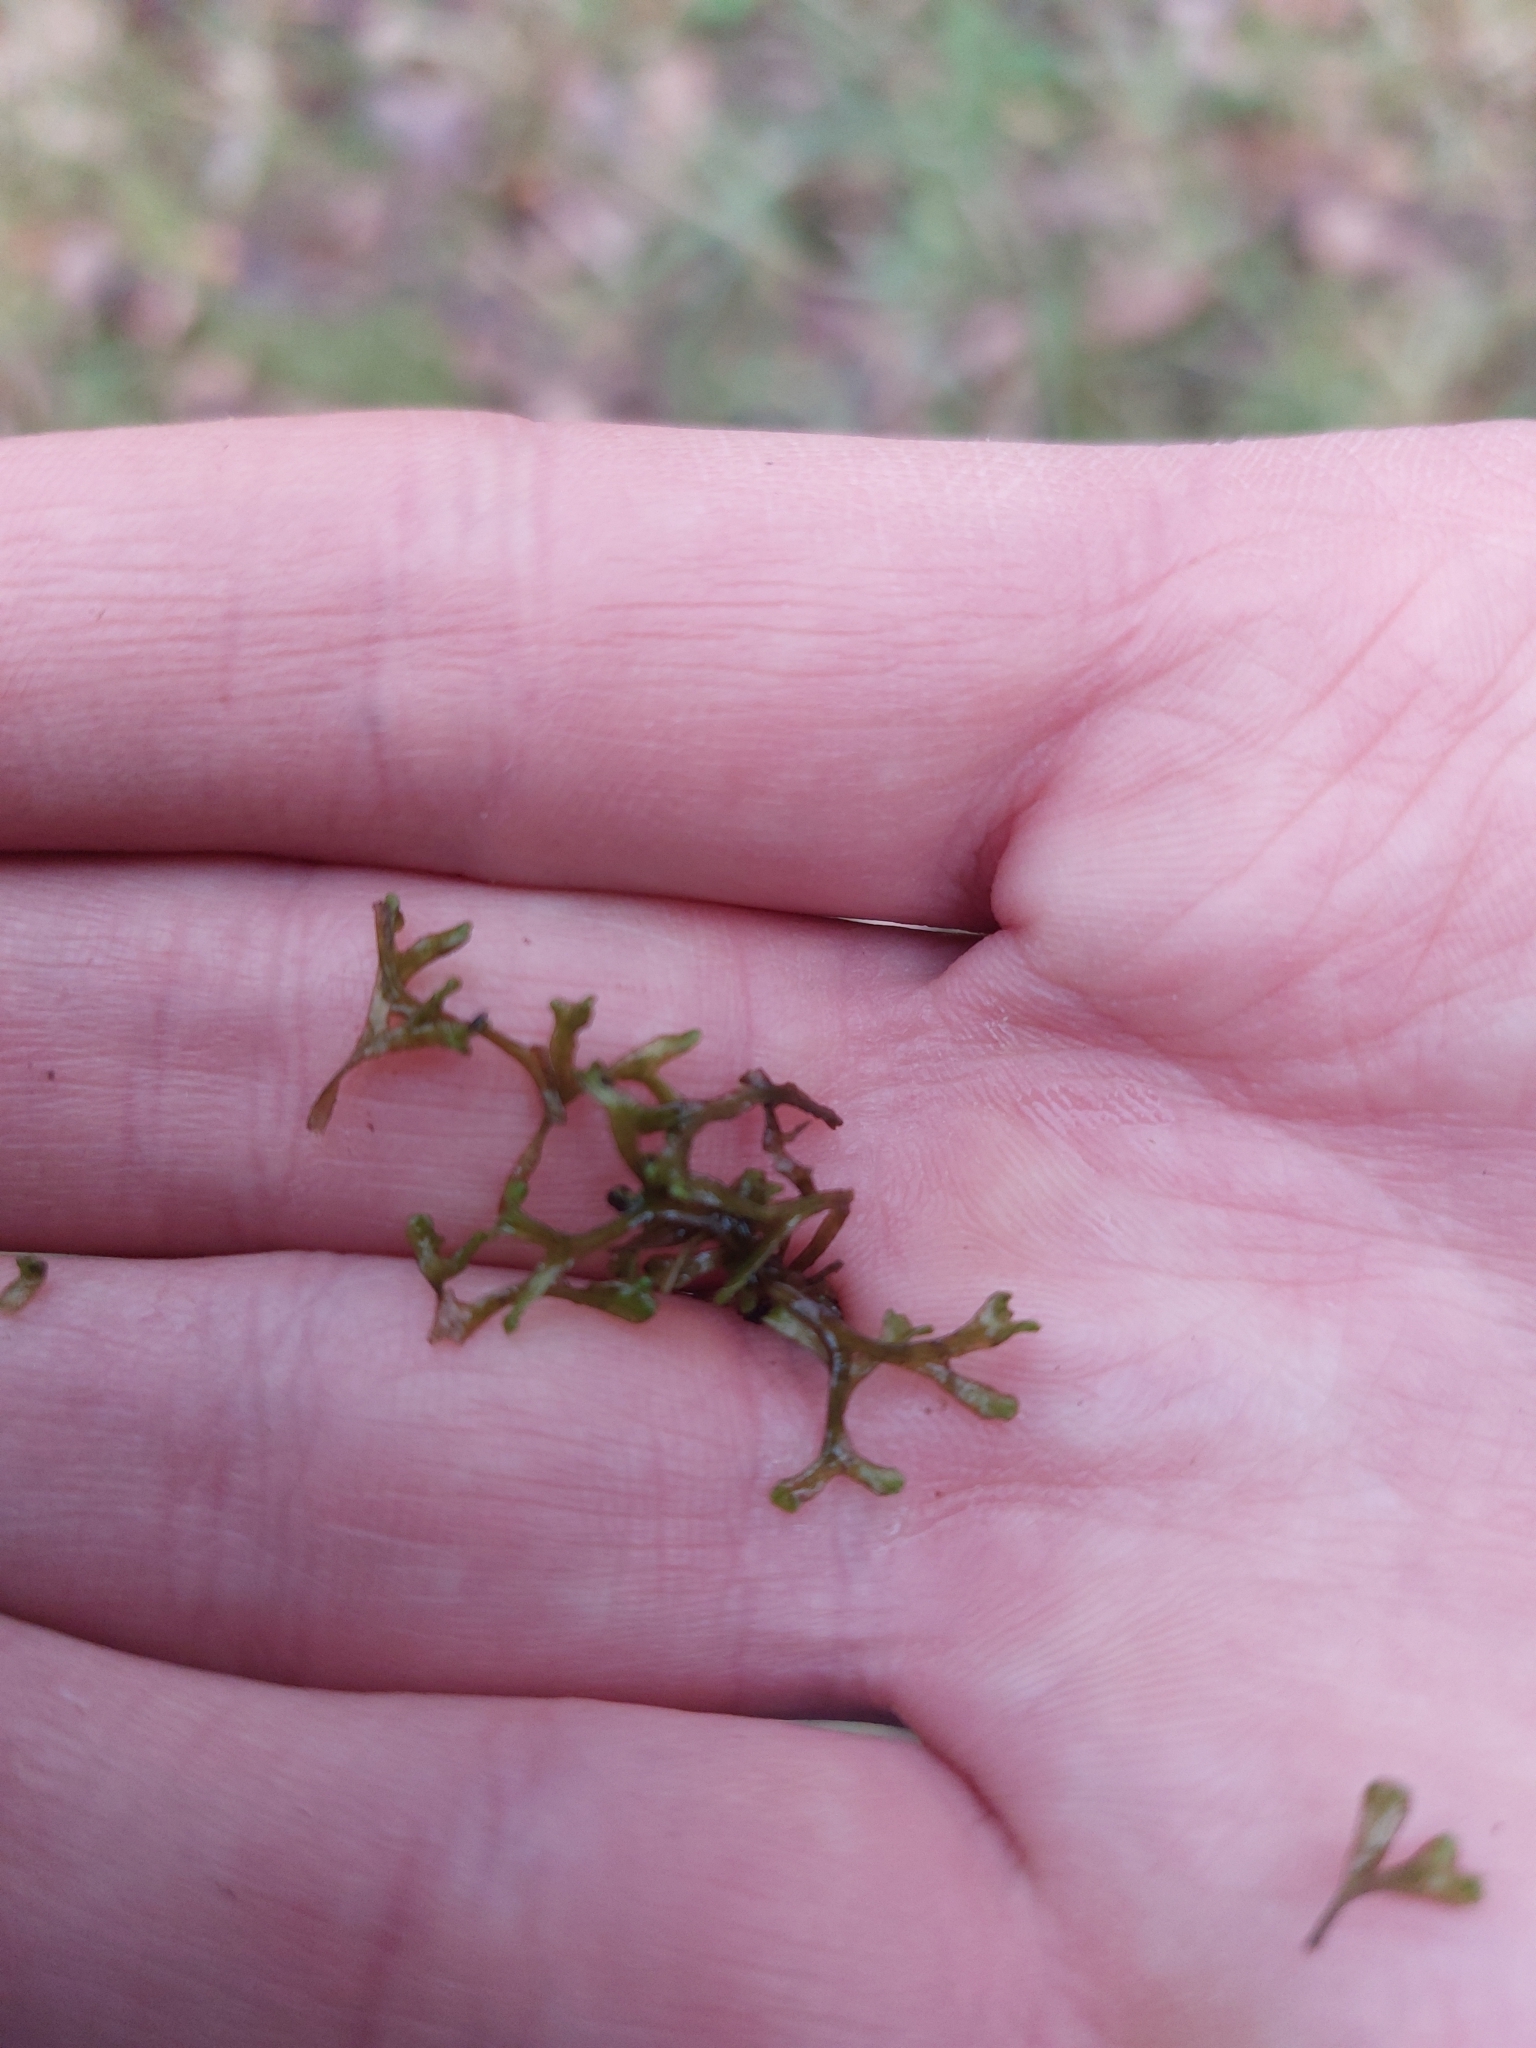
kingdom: Plantae
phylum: Marchantiophyta
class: Marchantiopsida
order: Marchantiales
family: Ricciaceae
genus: Riccia
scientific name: Riccia fluitans
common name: Floating crystalwort
